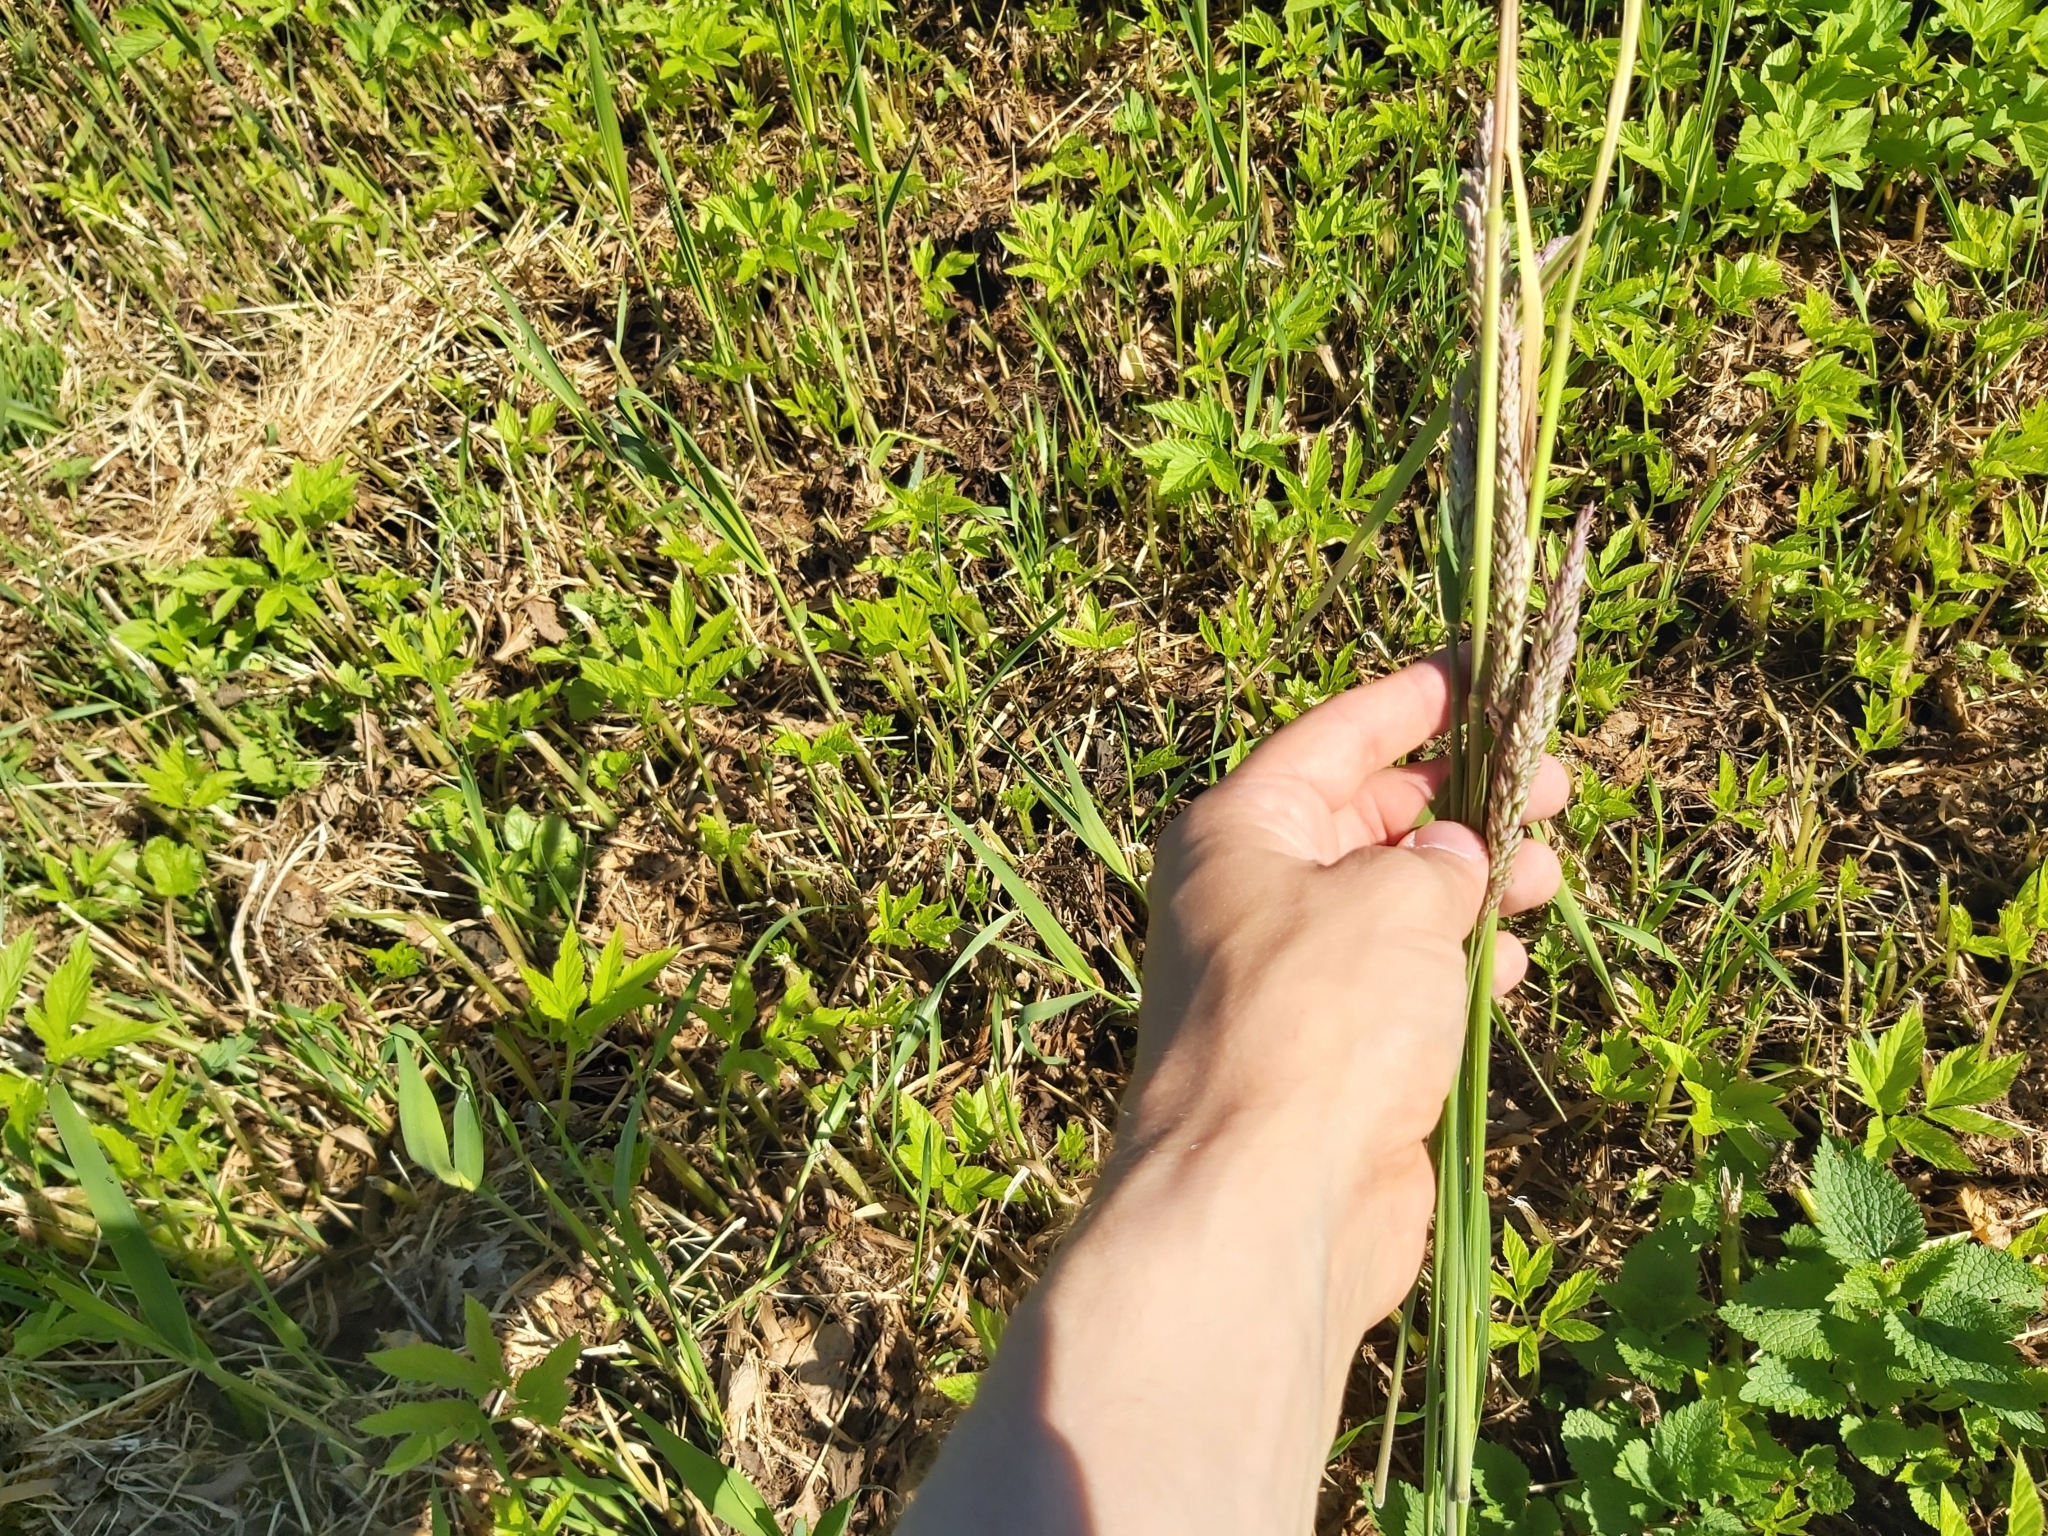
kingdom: Plantae
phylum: Tracheophyta
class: Liliopsida
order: Poales
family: Poaceae
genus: Holcus
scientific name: Holcus lanatus
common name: Yorkshire-fog
